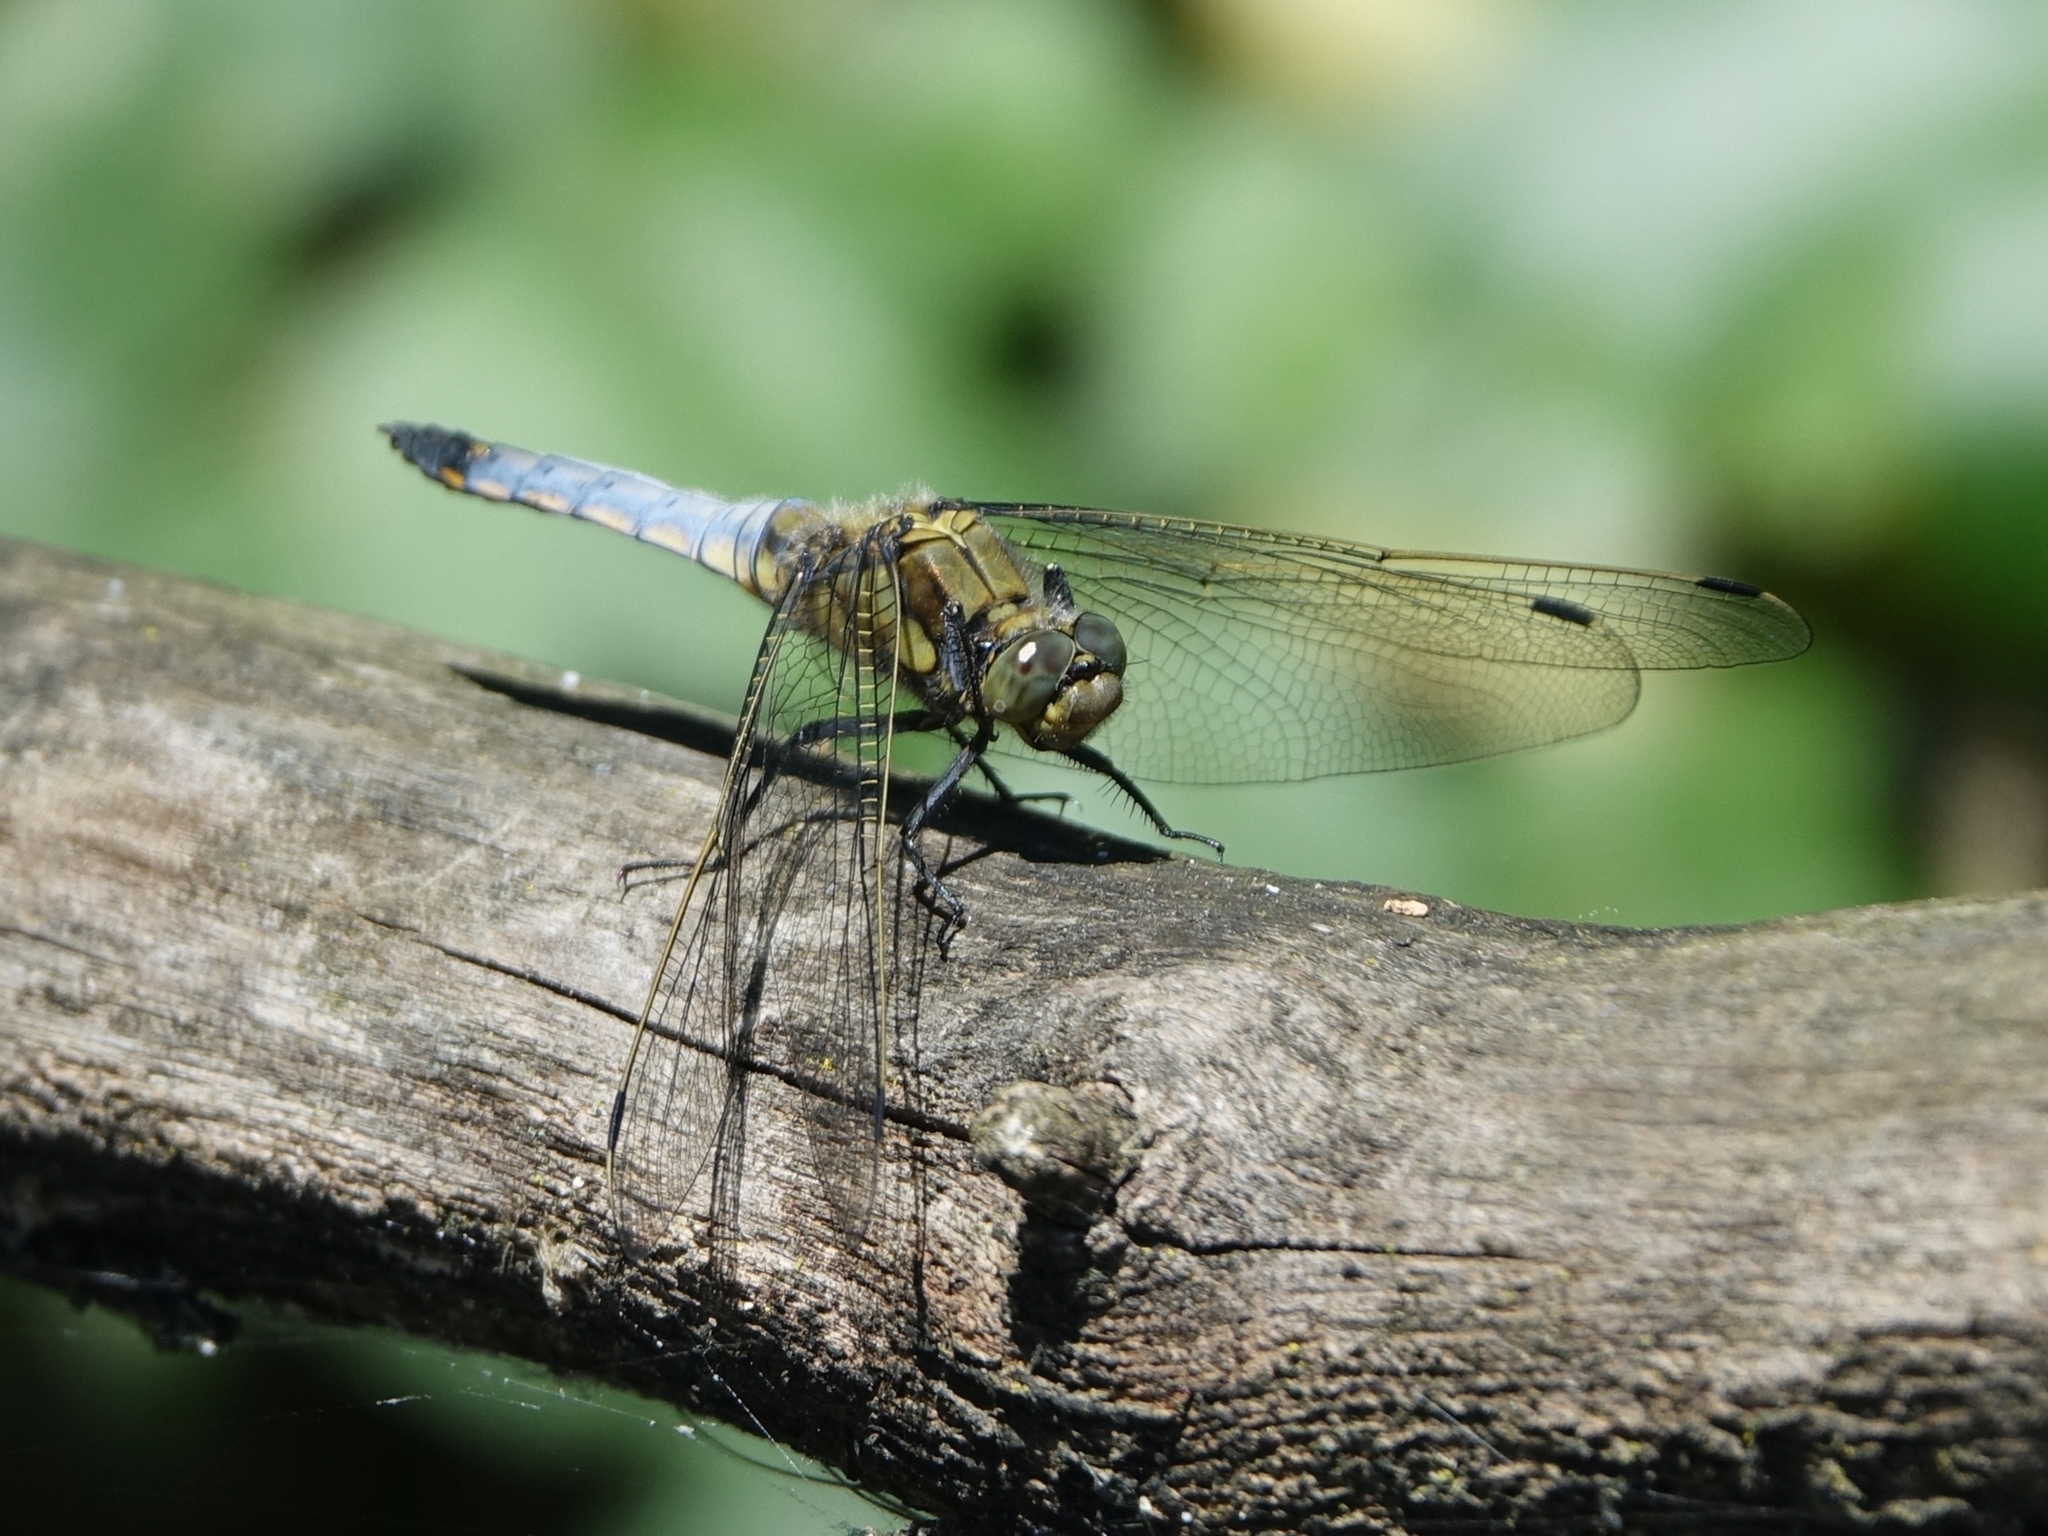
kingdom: Animalia
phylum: Arthropoda
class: Insecta
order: Odonata
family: Libellulidae
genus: Orthetrum
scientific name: Orthetrum cancellatum
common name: Black-tailed skimmer
